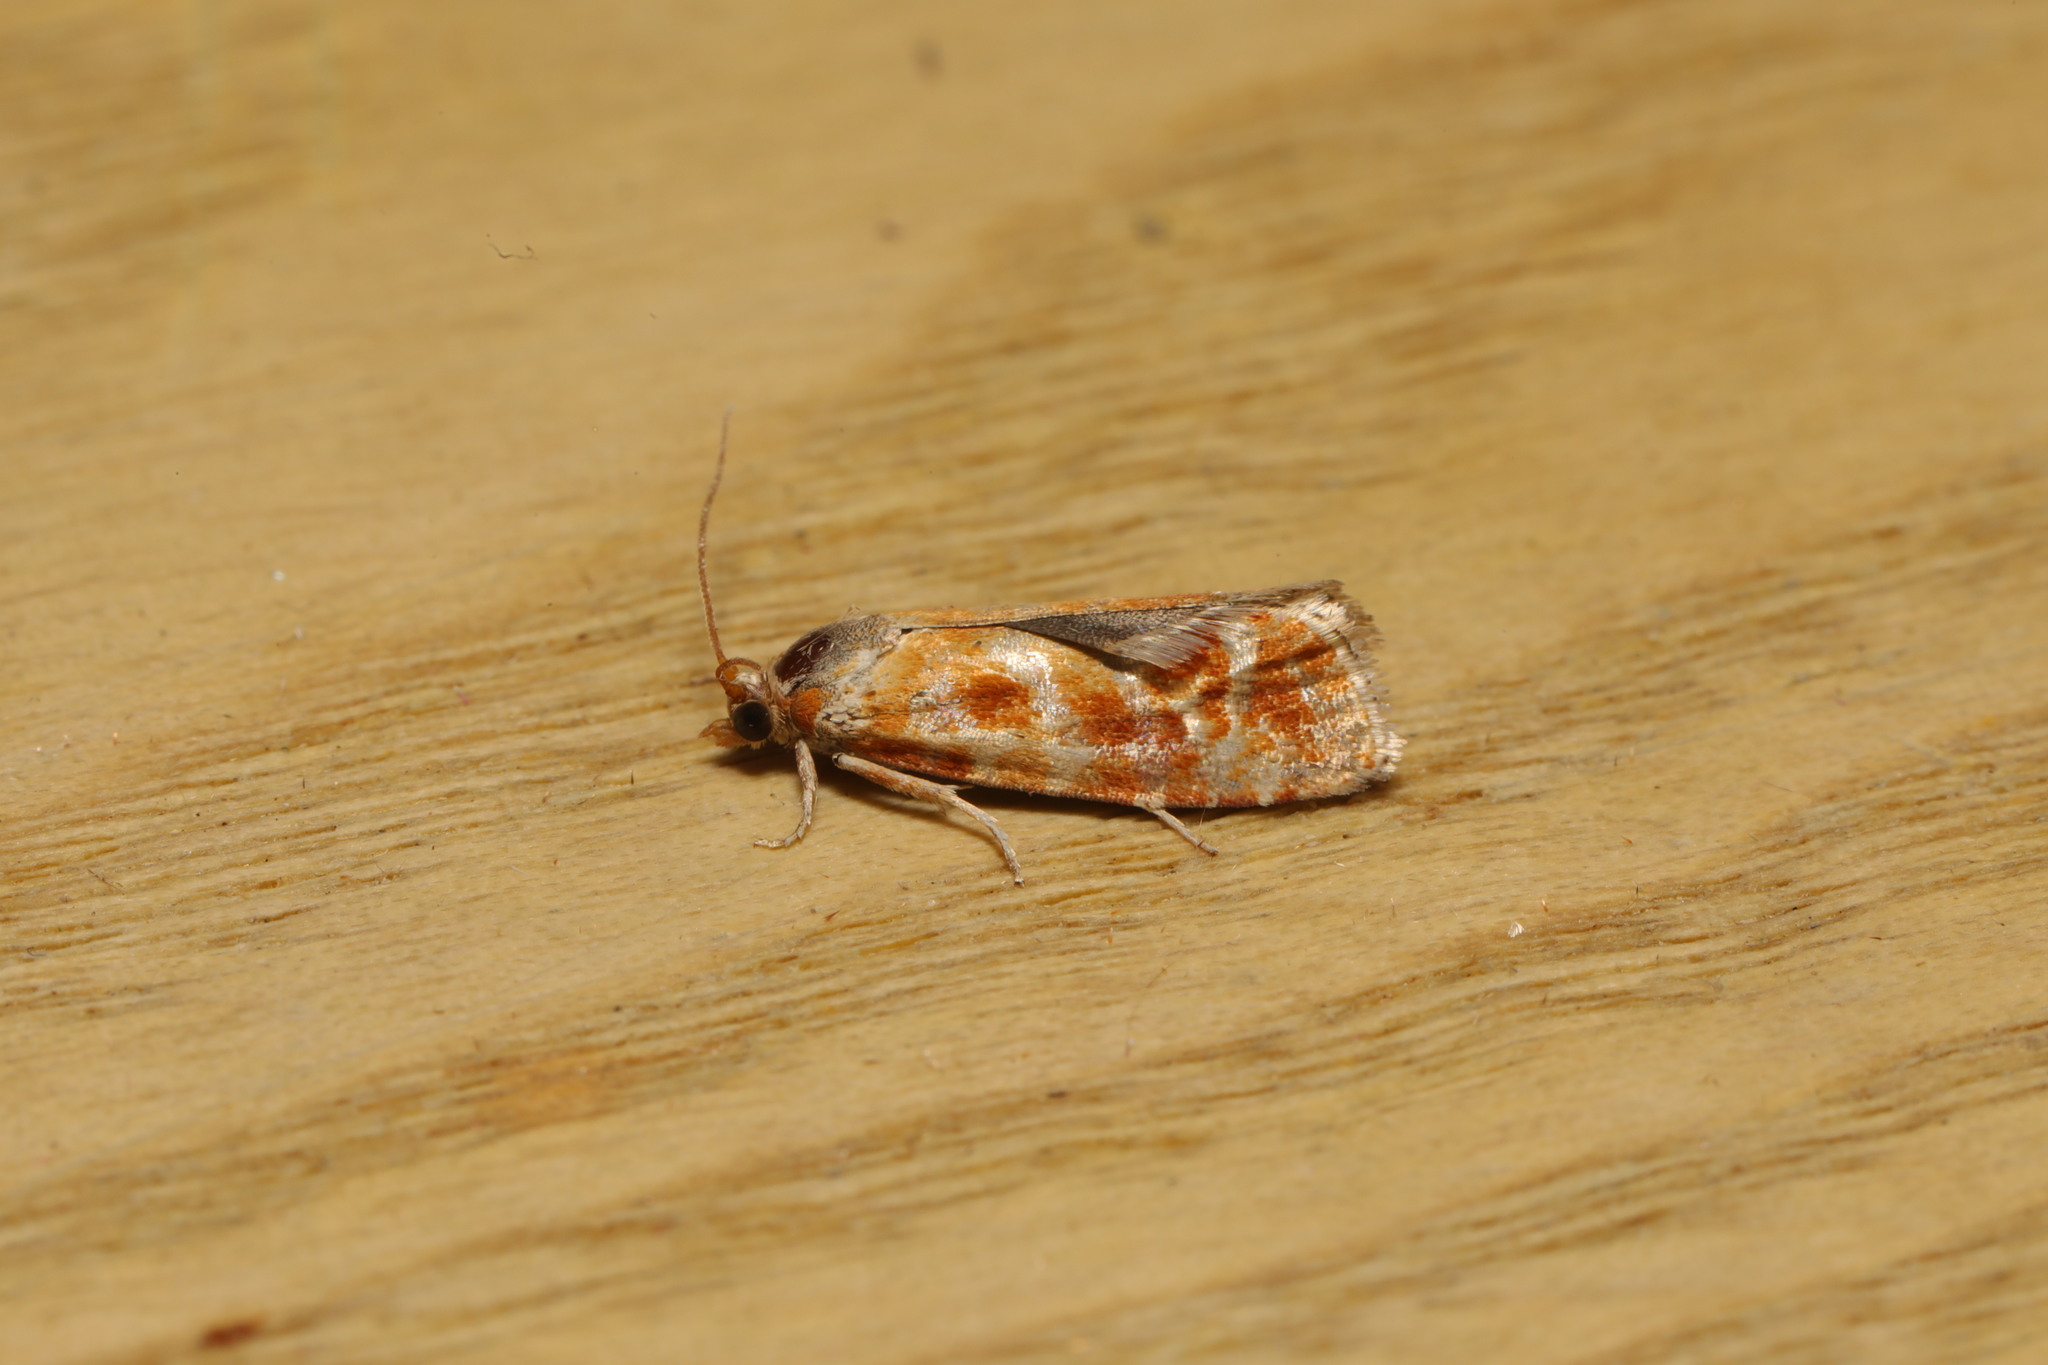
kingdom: Animalia
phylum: Arthropoda
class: Insecta
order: Lepidoptera
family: Tortricidae
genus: Rhyacionia
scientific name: Rhyacionia pinicolana
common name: Orange-spotted shoot
